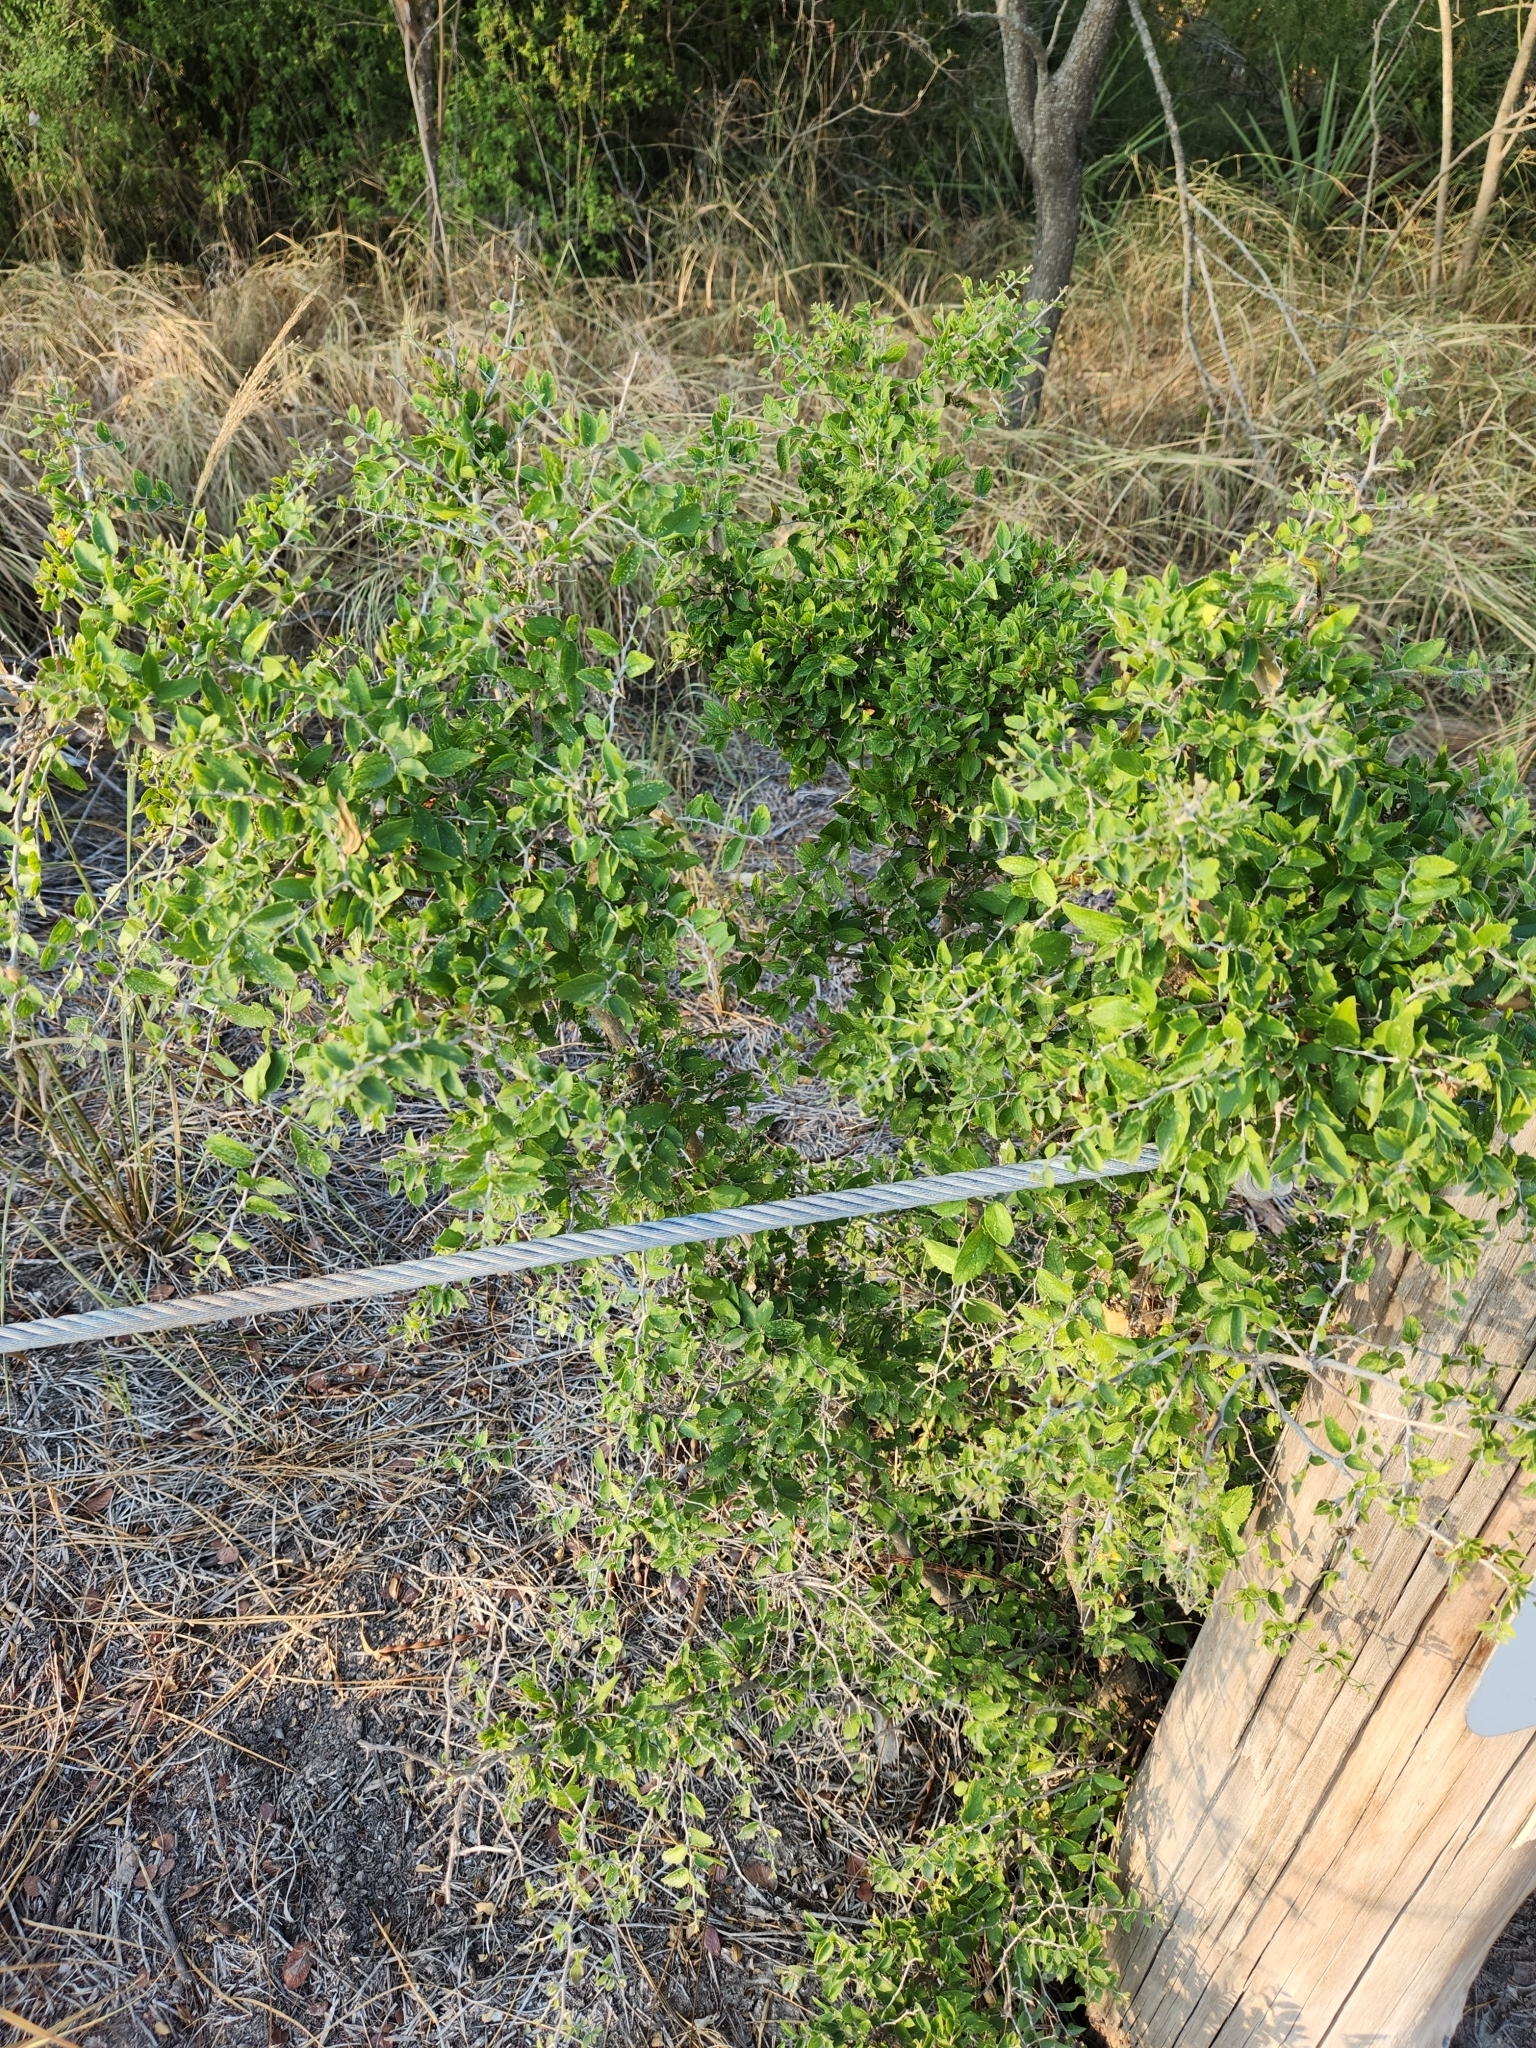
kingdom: Plantae
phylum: Tracheophyta
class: Magnoliopsida
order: Rosales
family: Cannabaceae
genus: Celtis
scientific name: Celtis pallida
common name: Desert hackberry
